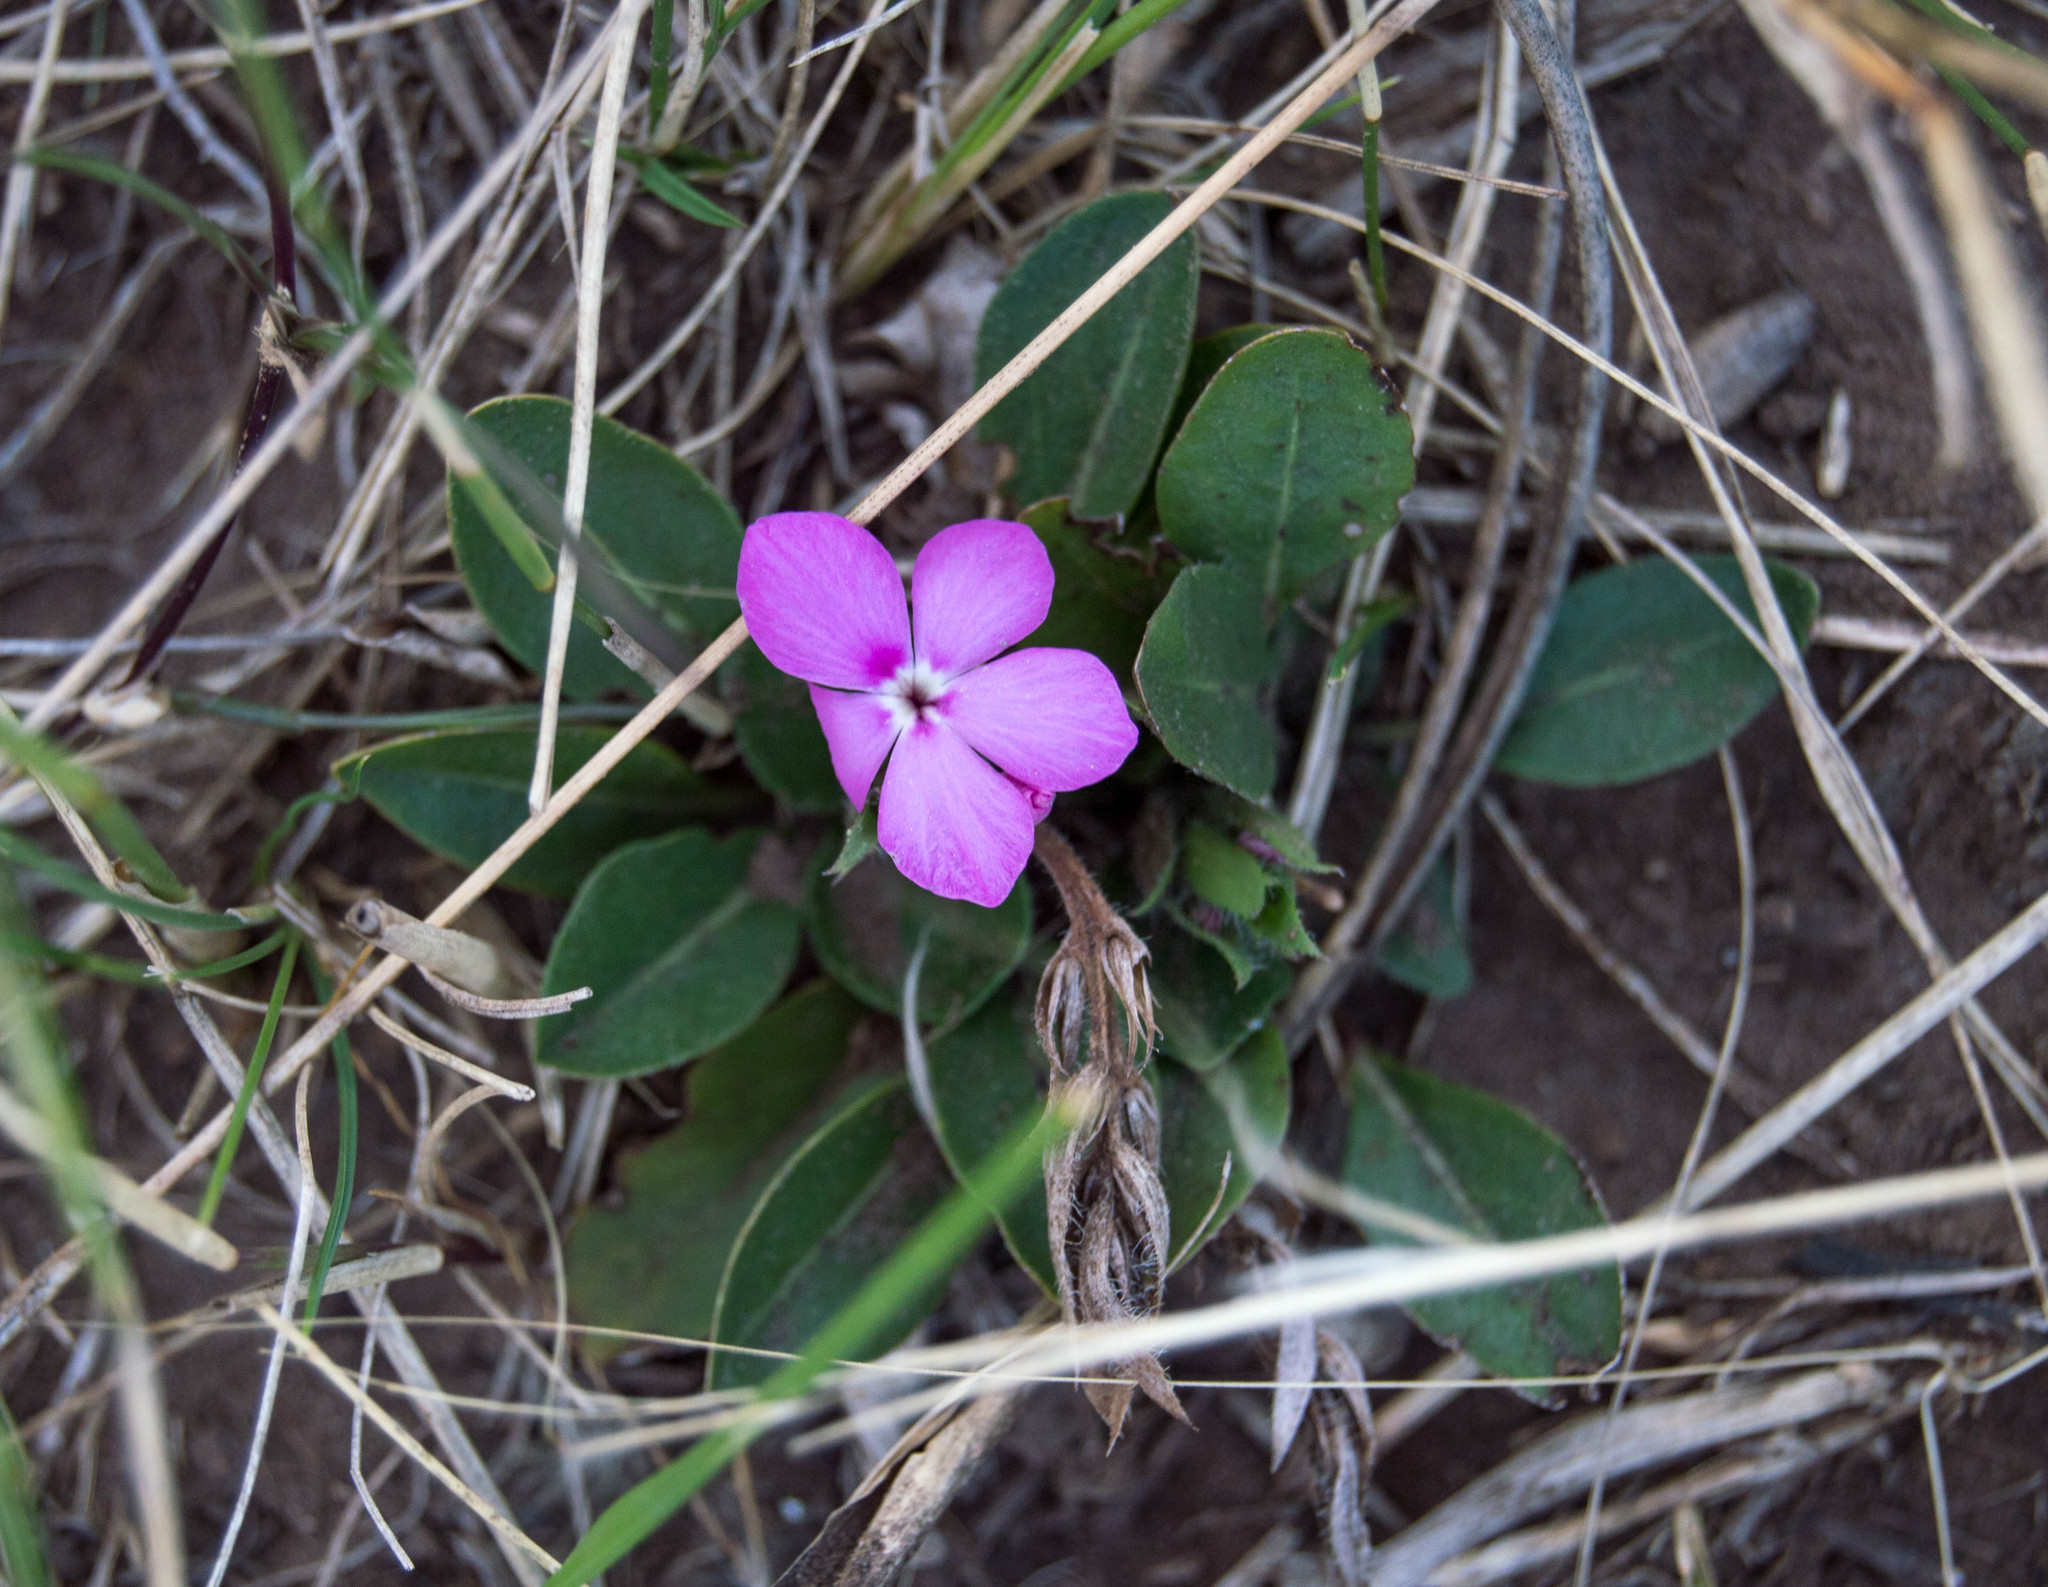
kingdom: Plantae
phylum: Tracheophyta
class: Magnoliopsida
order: Lamiales
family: Acanthaceae
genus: Stenandrium
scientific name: Stenandrium dulce
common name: Pinklet
